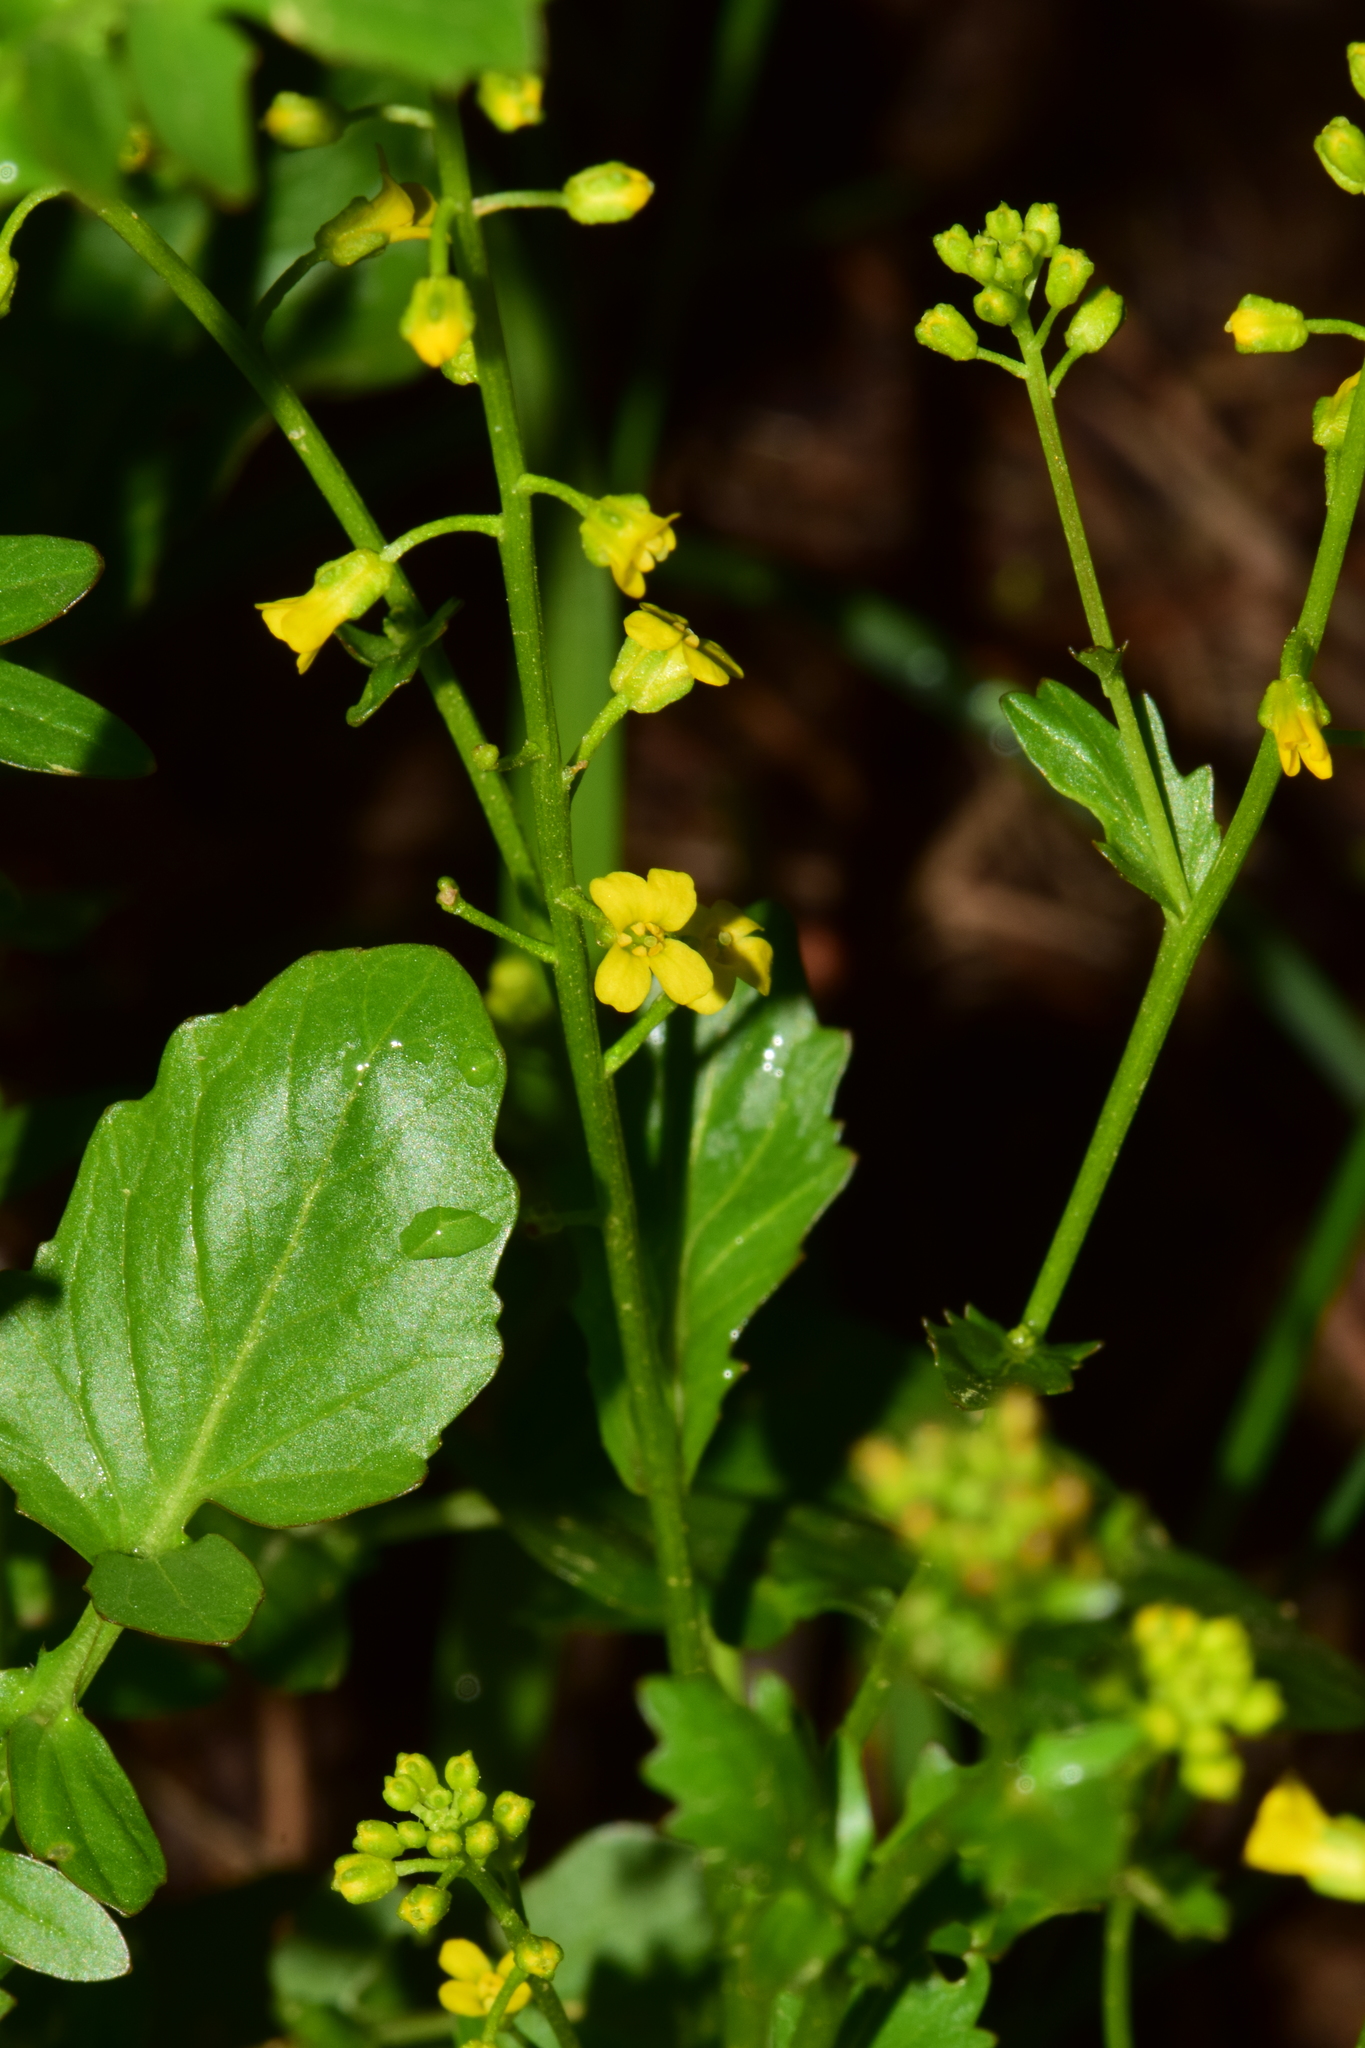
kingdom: Plantae
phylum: Tracheophyta
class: Magnoliopsida
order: Brassicales
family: Brassicaceae
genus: Barbarea
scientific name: Barbarea vulgaris
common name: Cressy-greens
